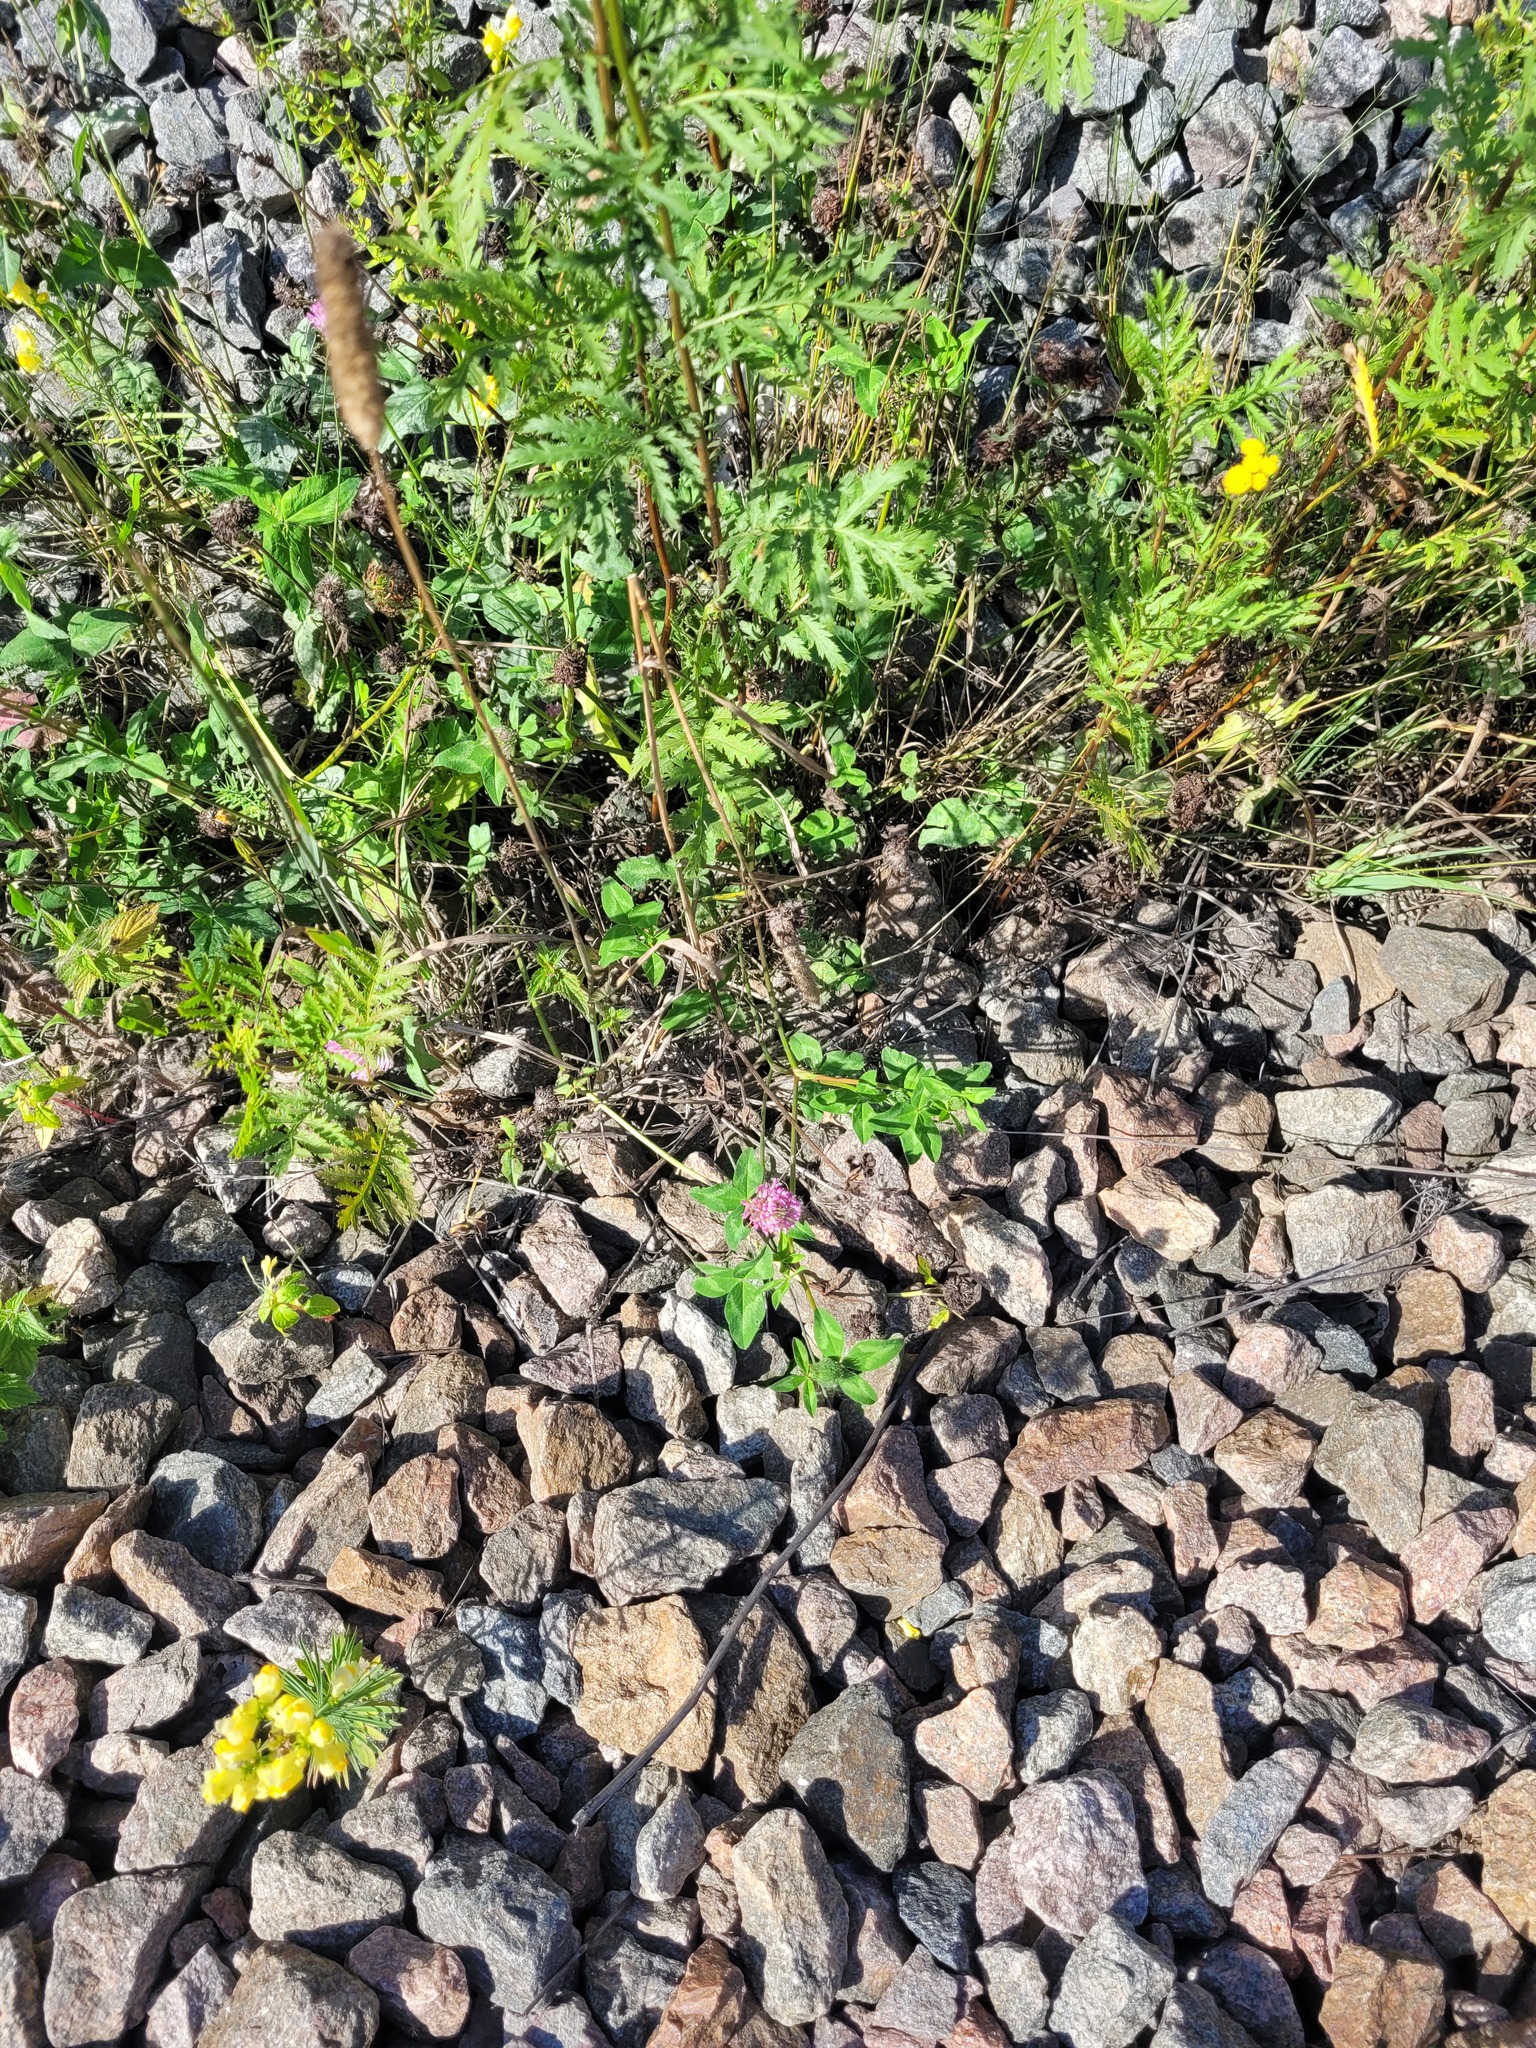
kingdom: Plantae
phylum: Tracheophyta
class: Magnoliopsida
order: Fabales
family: Fabaceae
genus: Trifolium
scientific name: Trifolium pratense
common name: Red clover
